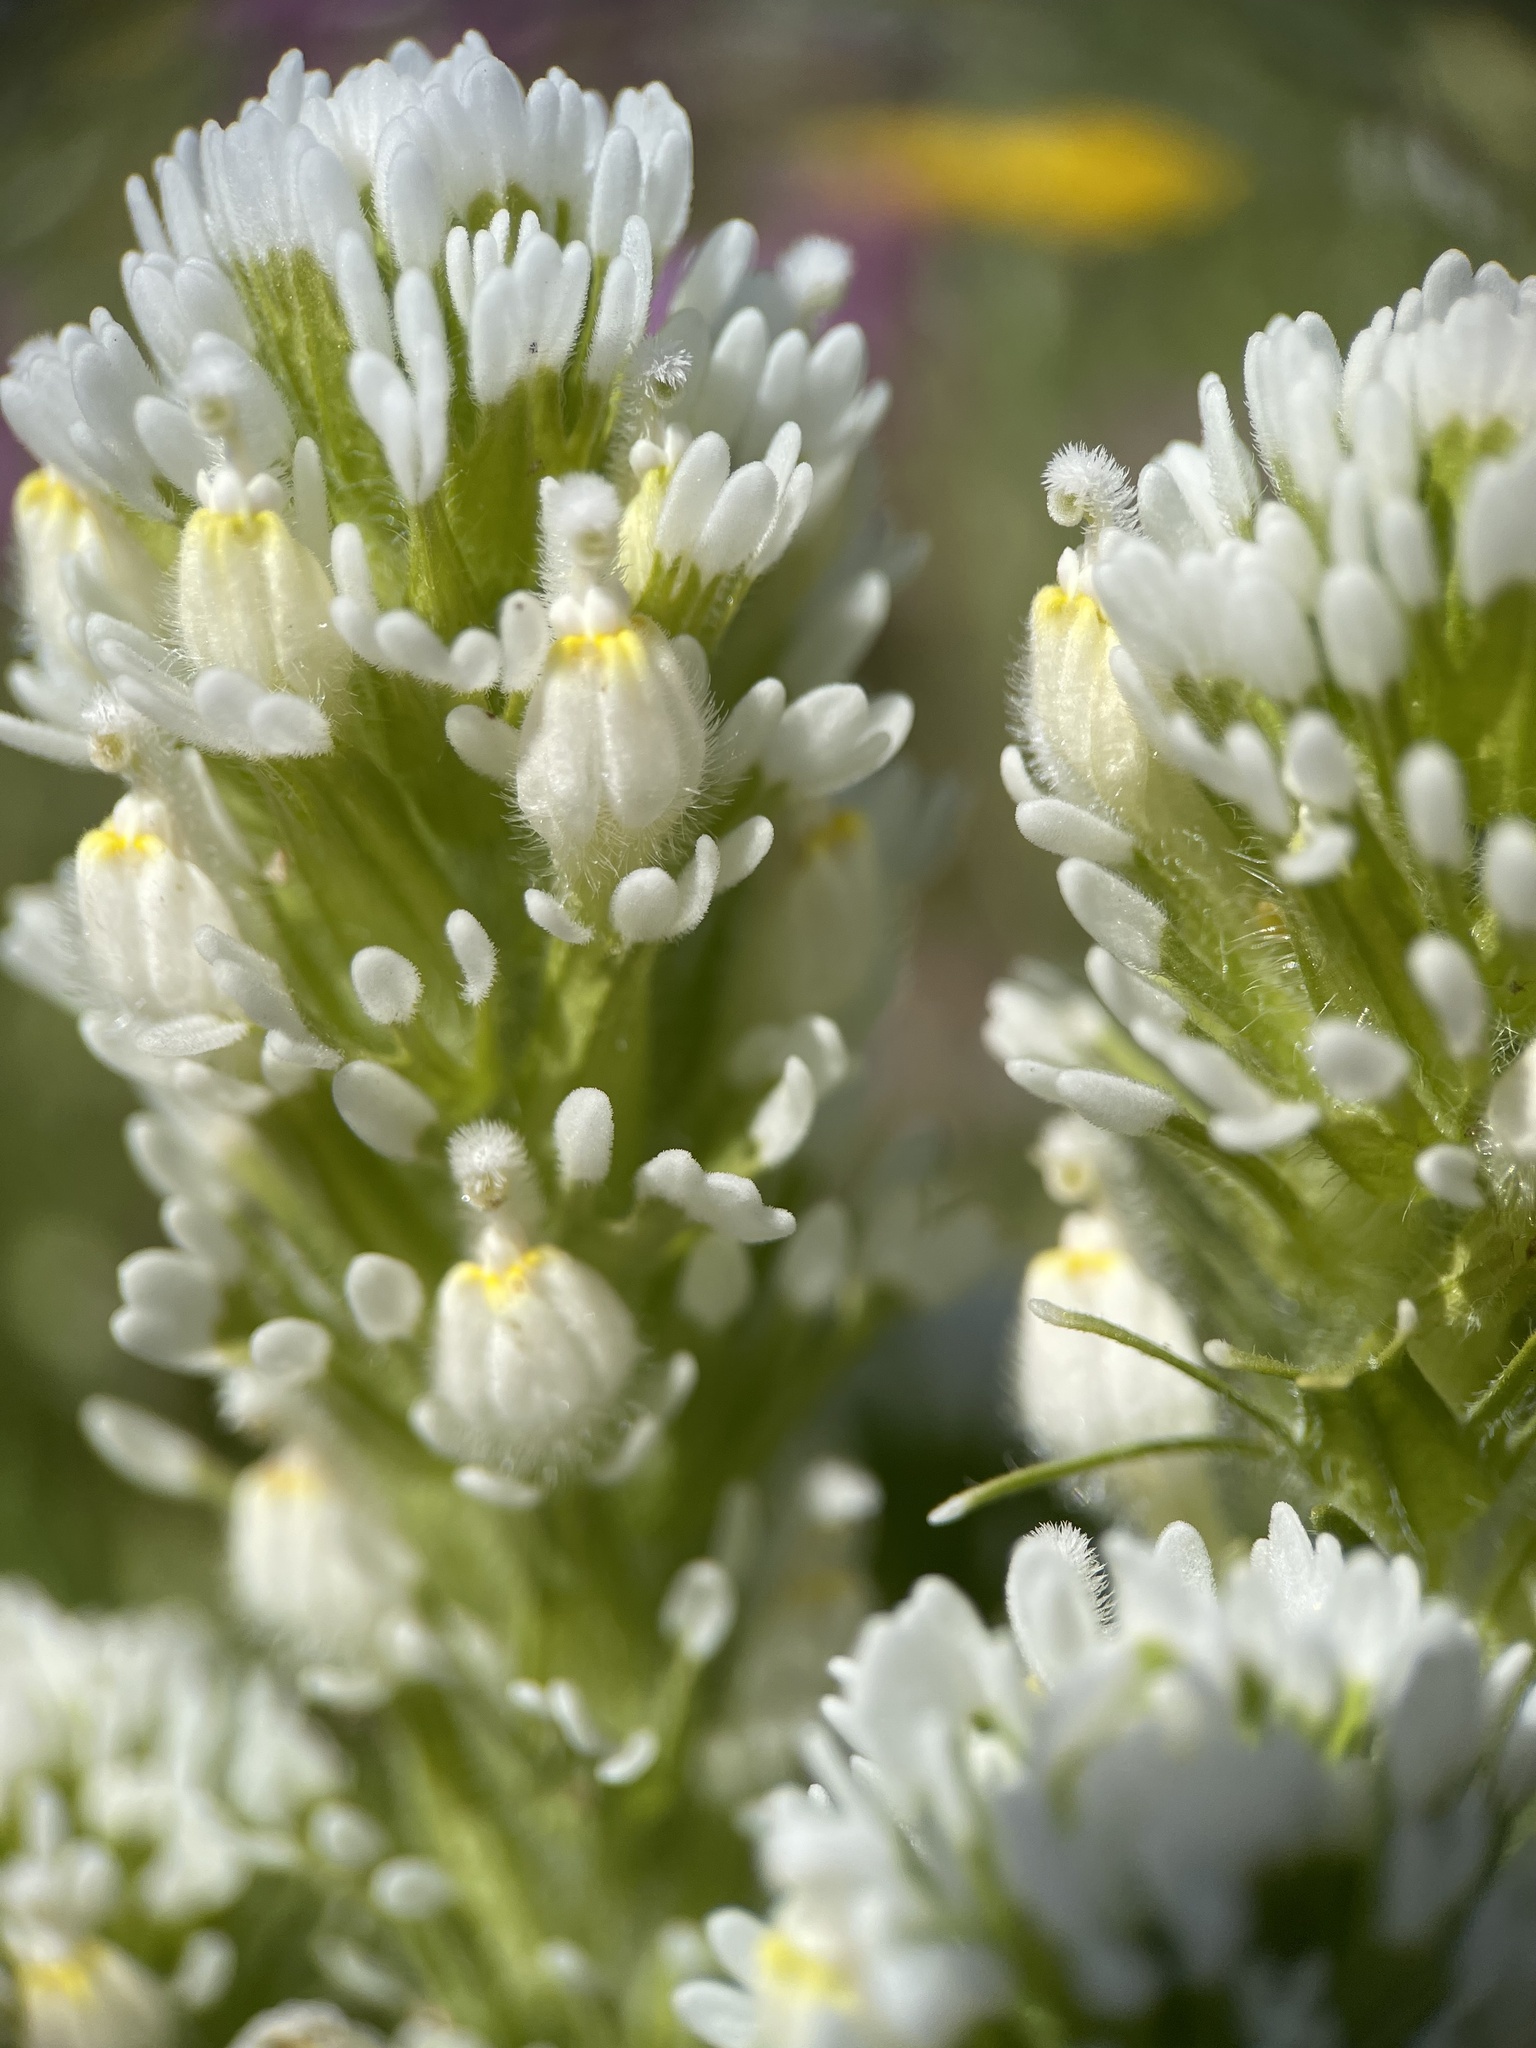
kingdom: Plantae
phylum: Tracheophyta
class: Magnoliopsida
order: Lamiales
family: Orobanchaceae
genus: Castilleja
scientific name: Castilleja exserta
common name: Purple owl-clover
